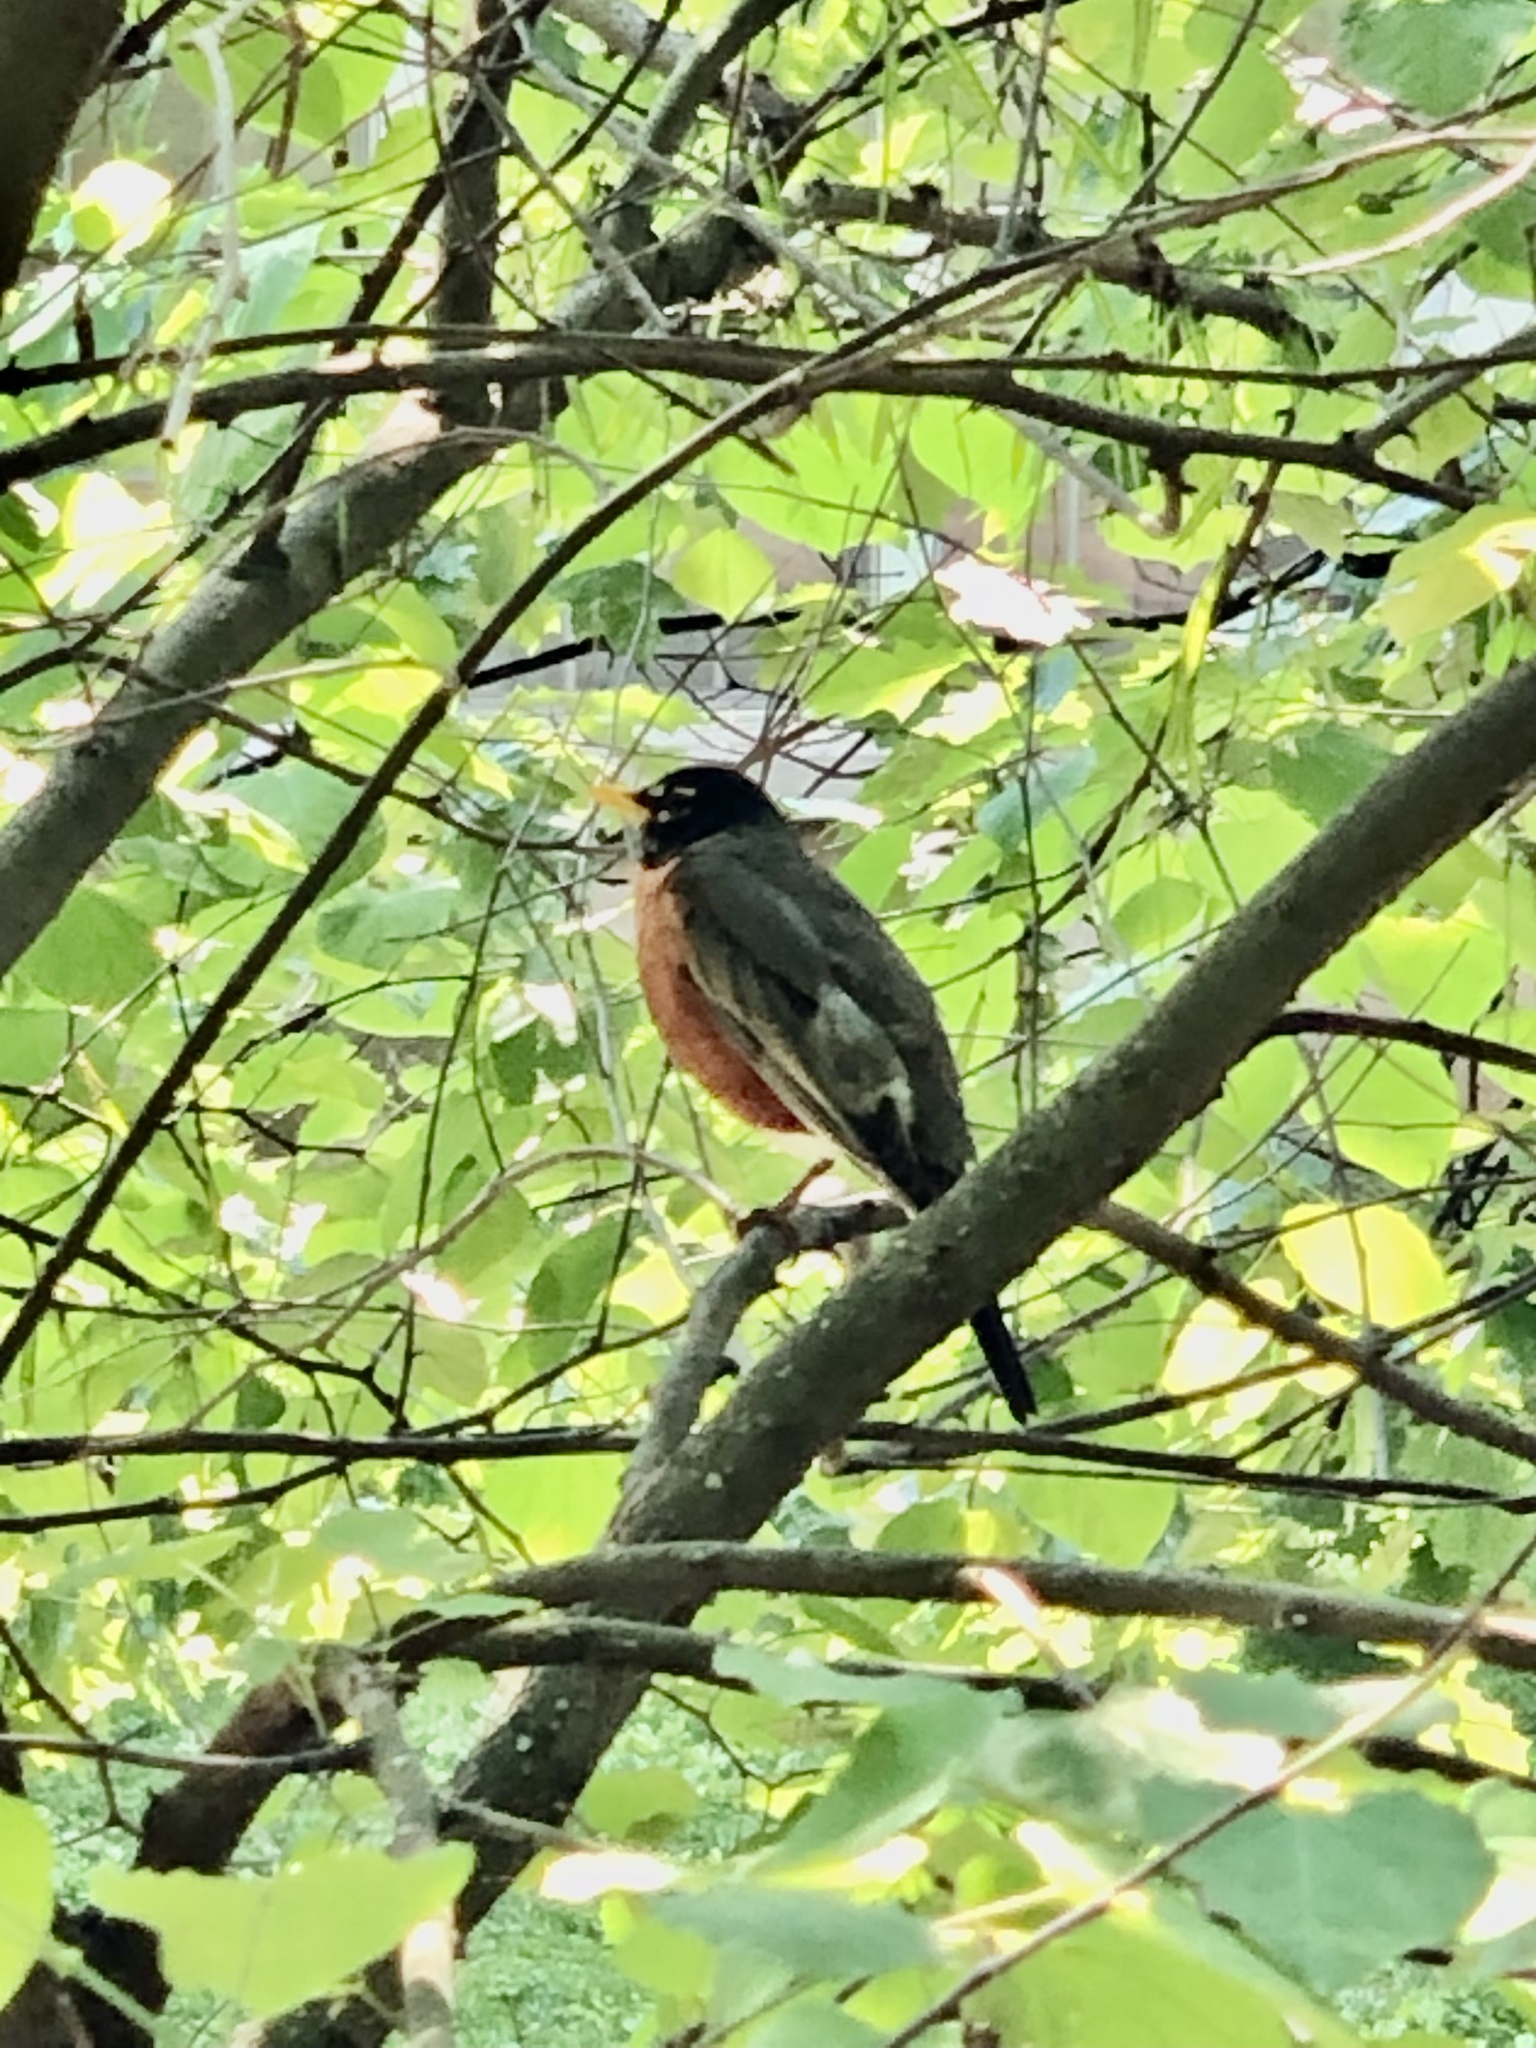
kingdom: Animalia
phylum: Chordata
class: Aves
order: Passeriformes
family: Turdidae
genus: Turdus
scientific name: Turdus migratorius
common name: American robin
